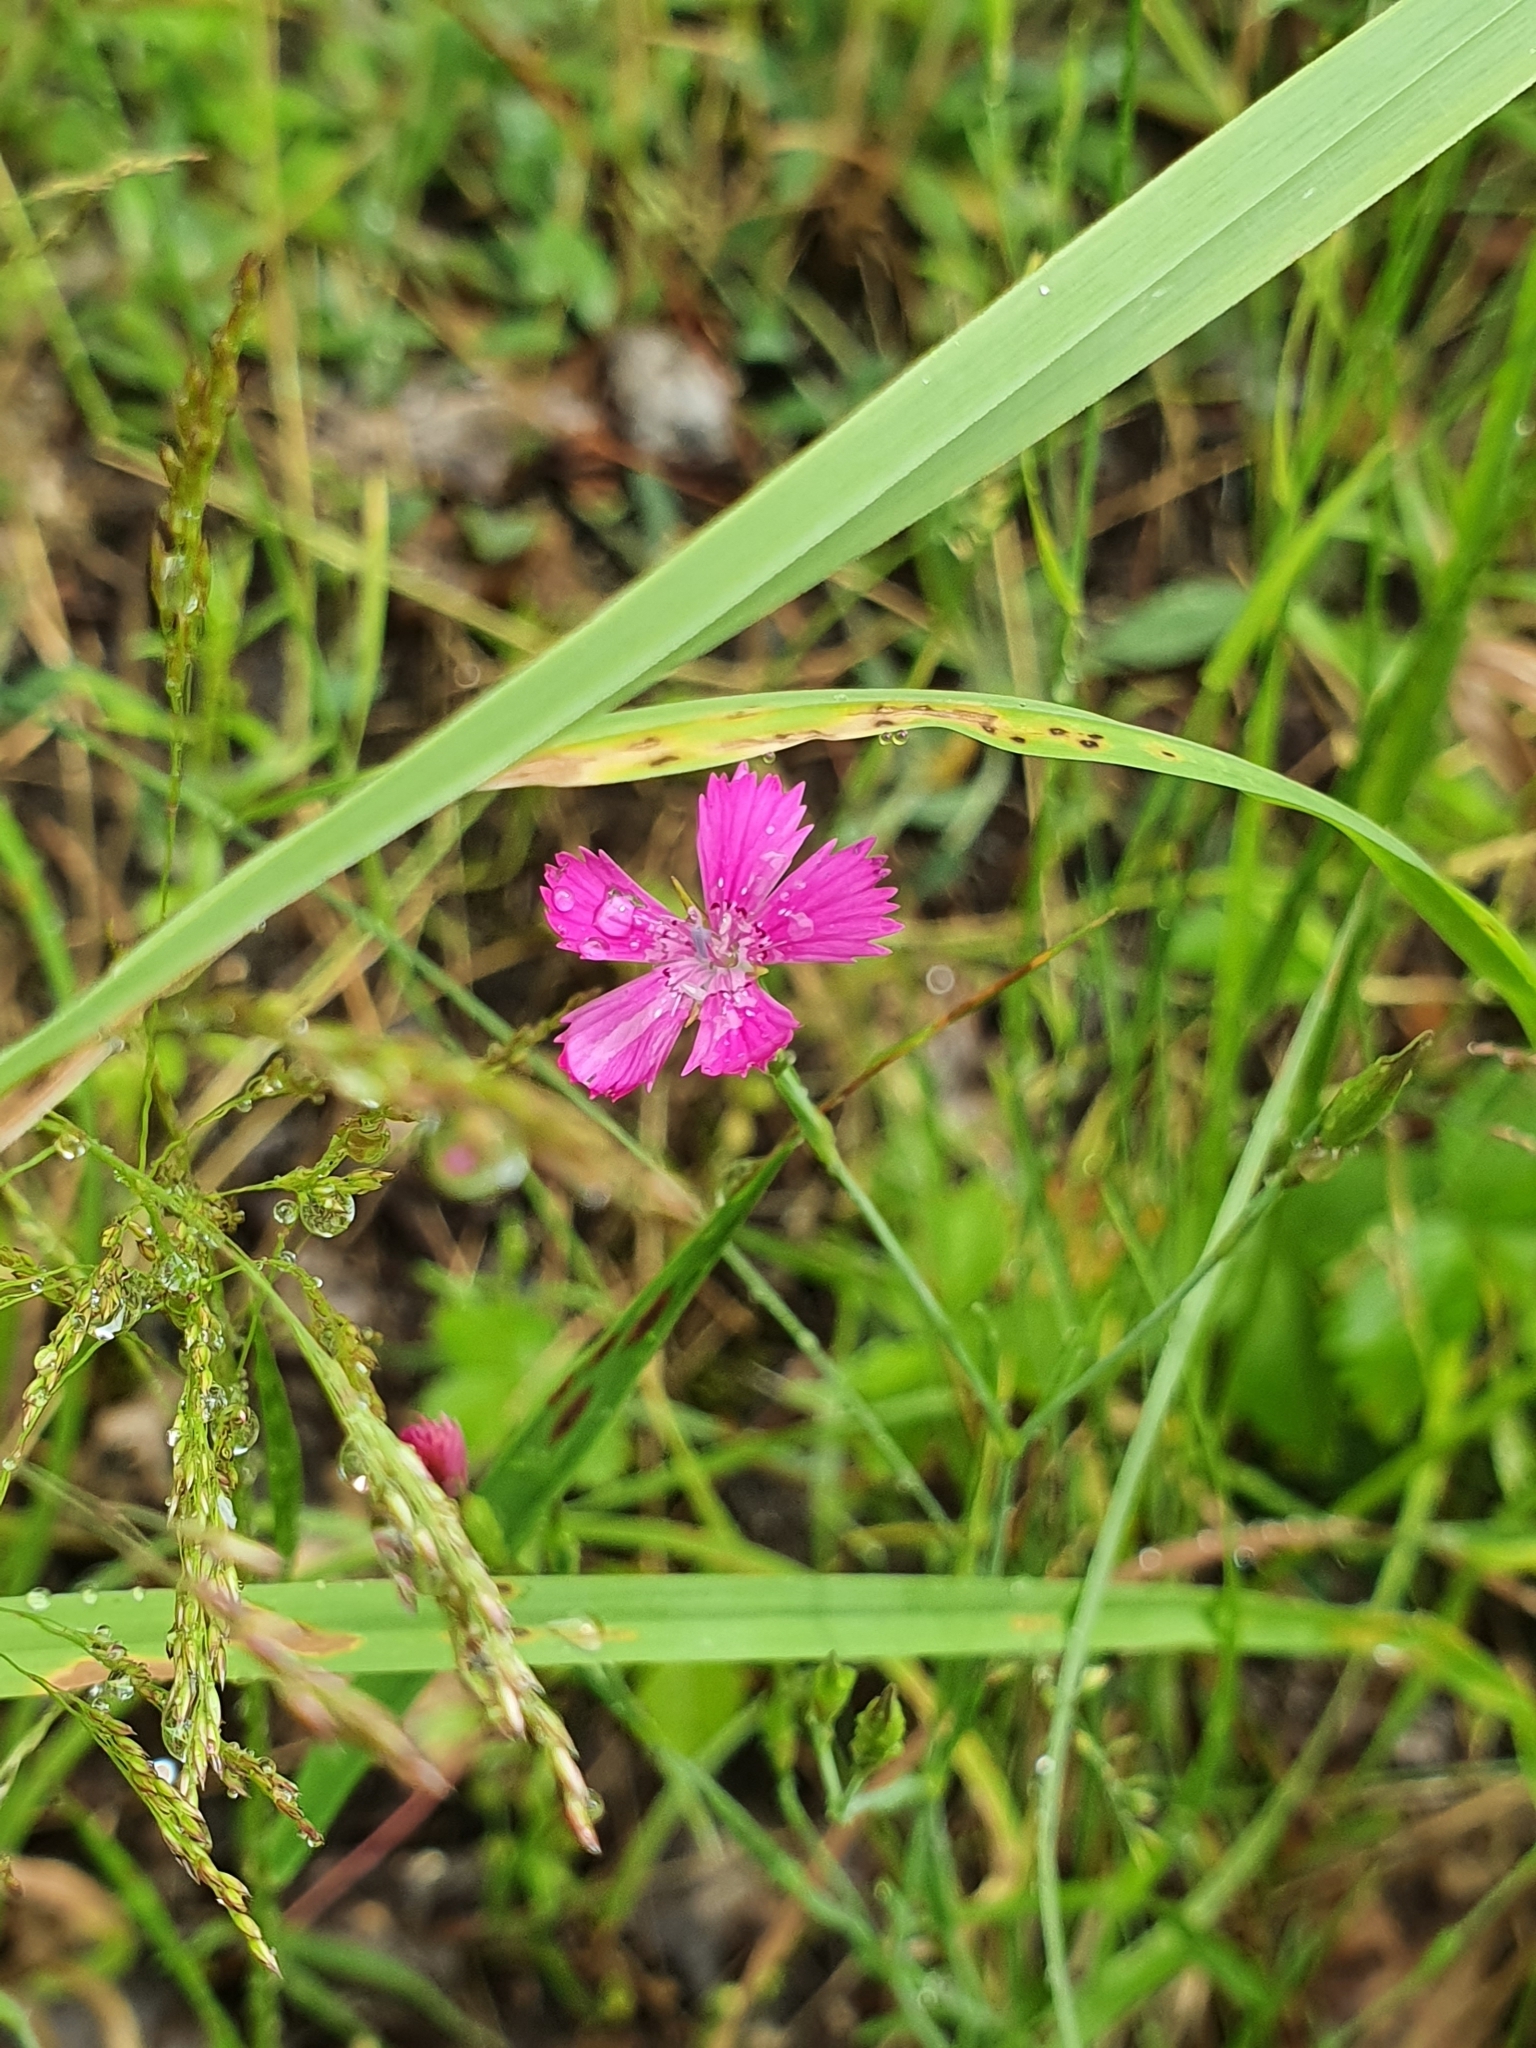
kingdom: Plantae
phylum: Tracheophyta
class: Magnoliopsida
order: Caryophyllales
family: Caryophyllaceae
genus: Dianthus
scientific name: Dianthus deltoides
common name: Maiden pink
